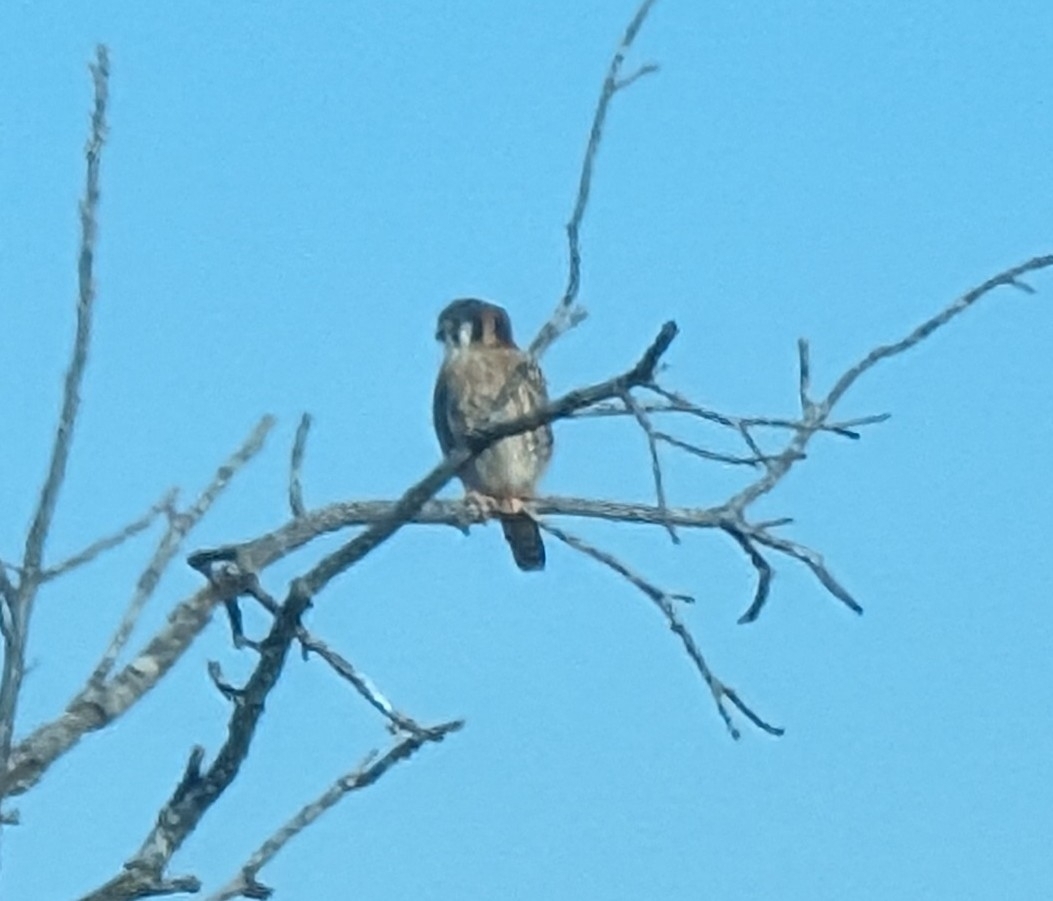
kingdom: Animalia
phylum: Chordata
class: Aves
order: Falconiformes
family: Falconidae
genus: Falco
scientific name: Falco sparverius
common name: American kestrel
